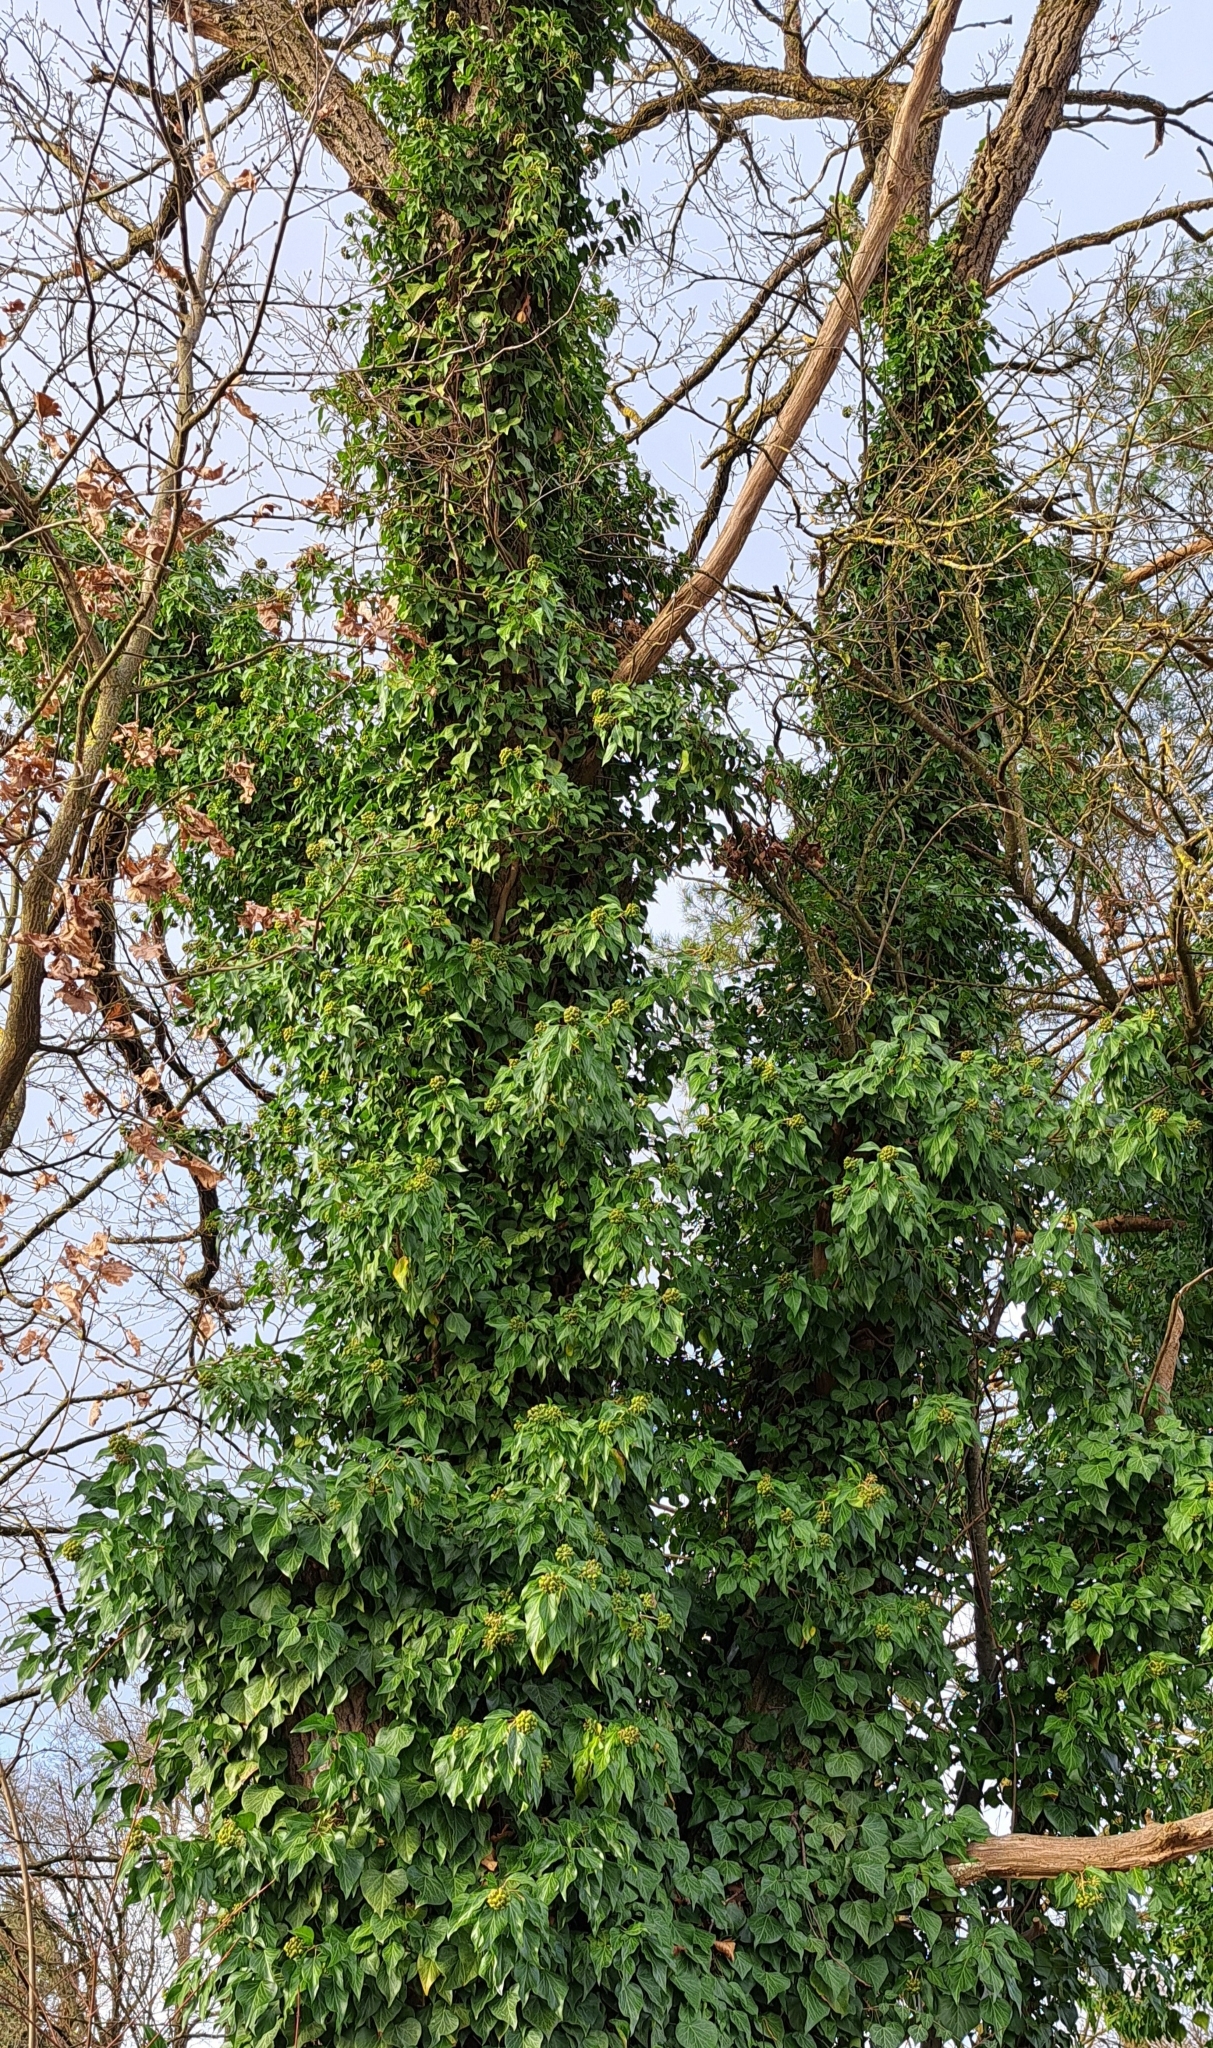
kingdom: Plantae
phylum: Tracheophyta
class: Magnoliopsida
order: Apiales
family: Araliaceae
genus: Hedera
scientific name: Hedera helix
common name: Ivy
